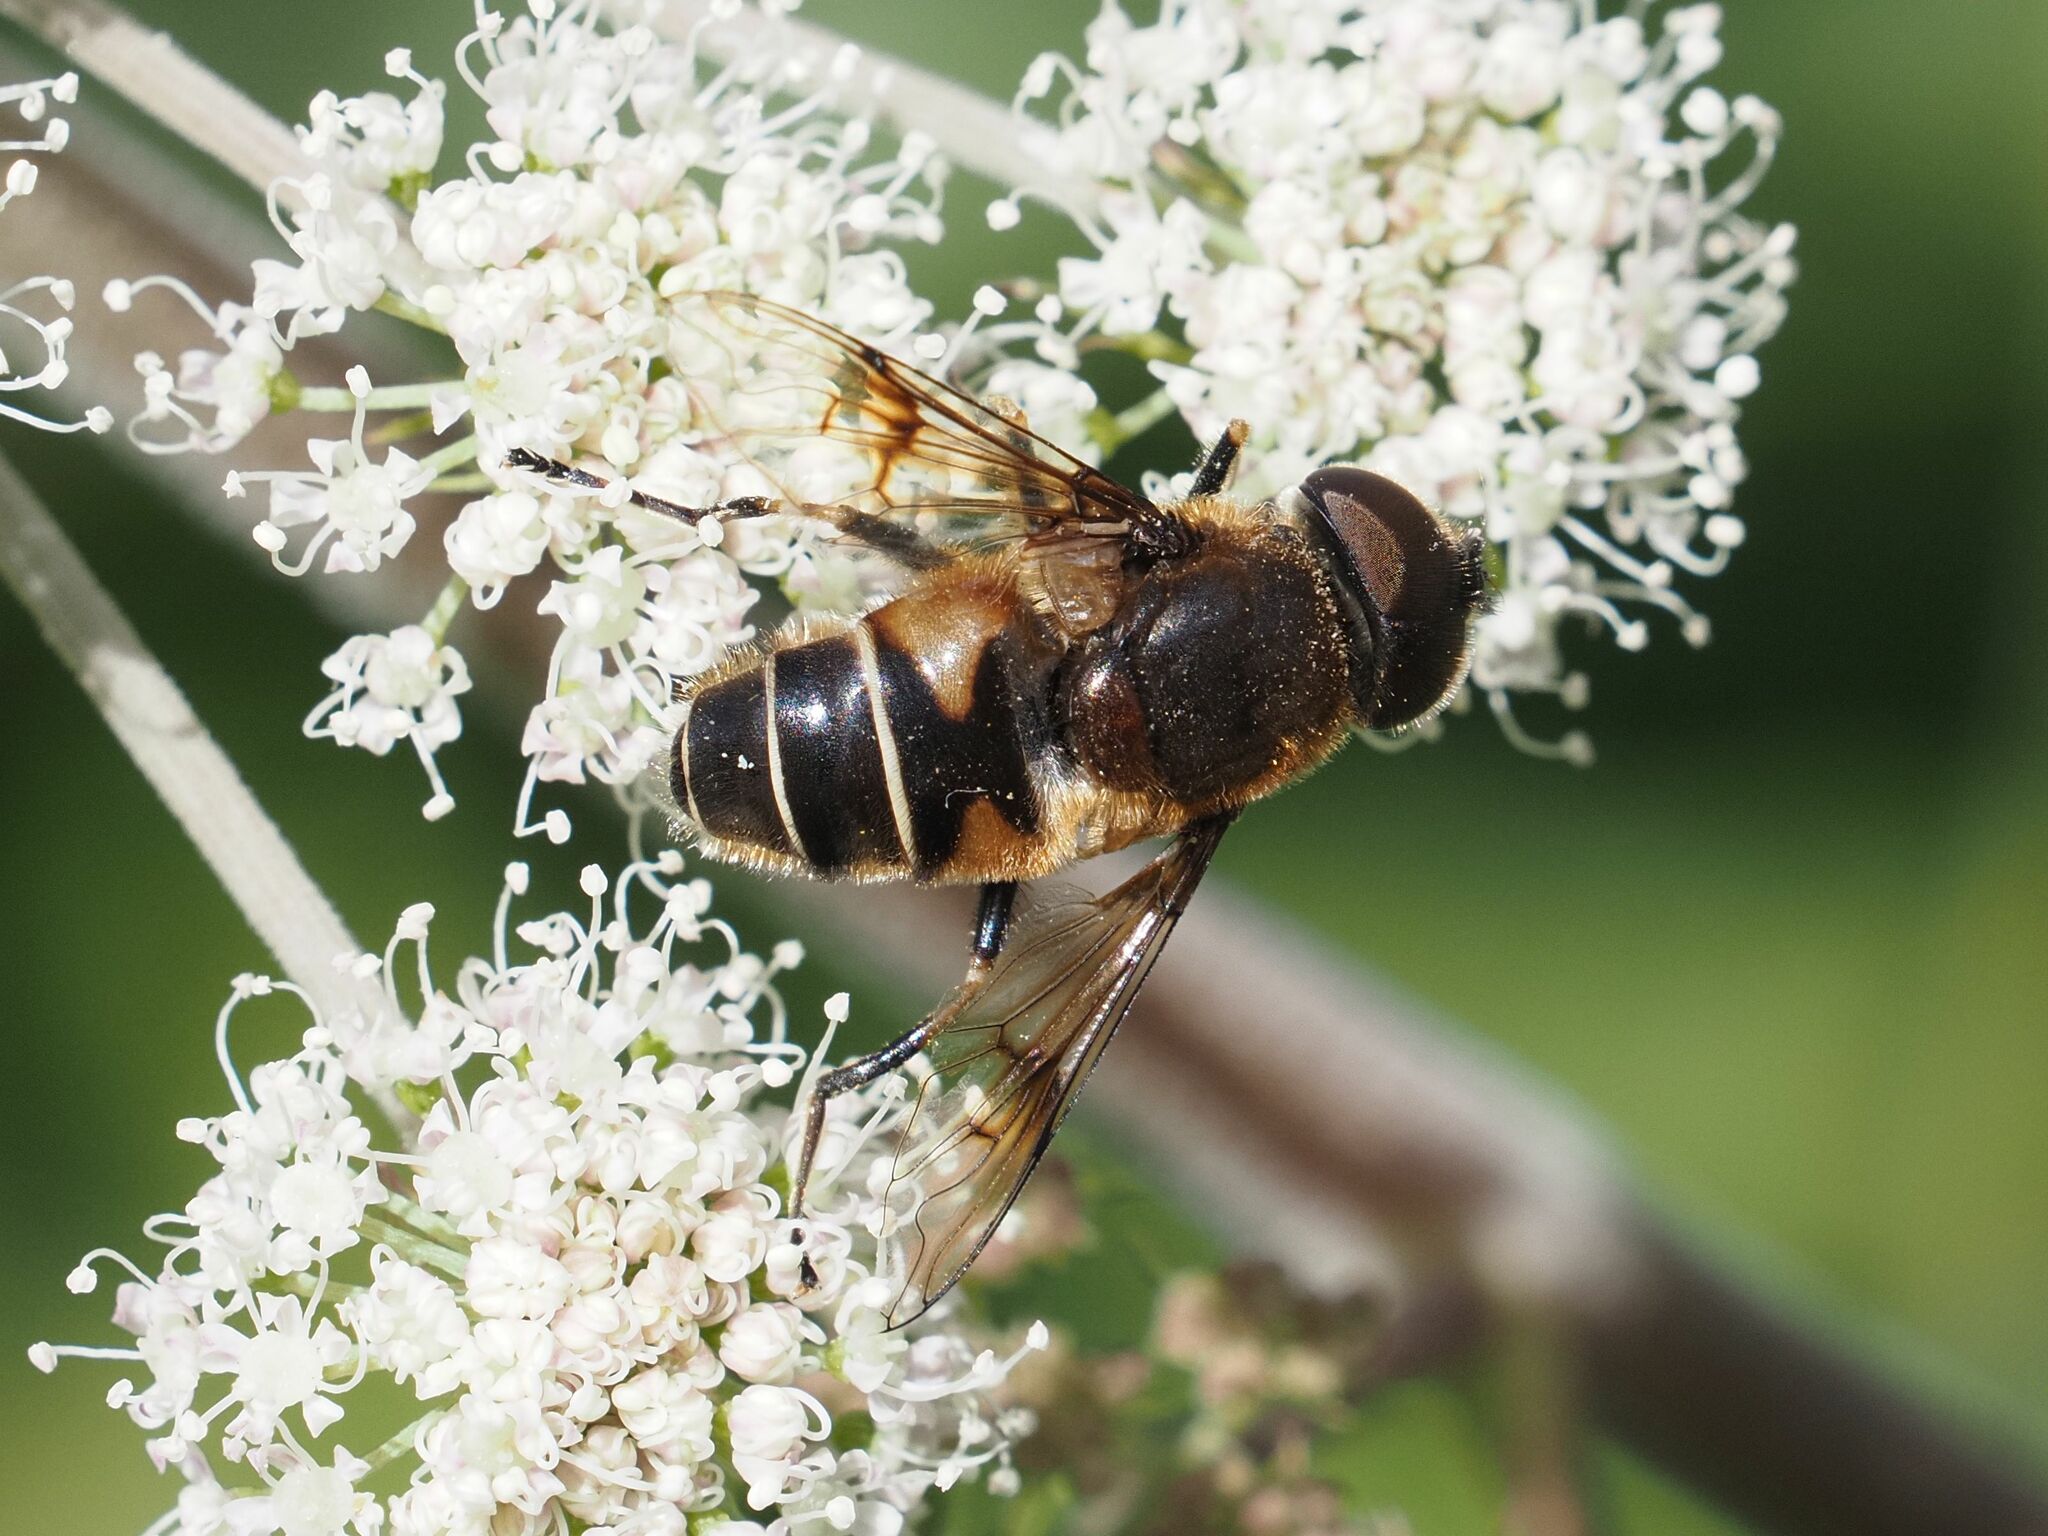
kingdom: Animalia
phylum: Arthropoda
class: Insecta
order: Diptera
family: Syrphidae
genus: Eristalis
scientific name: Eristalis rupium
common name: Hover fly
